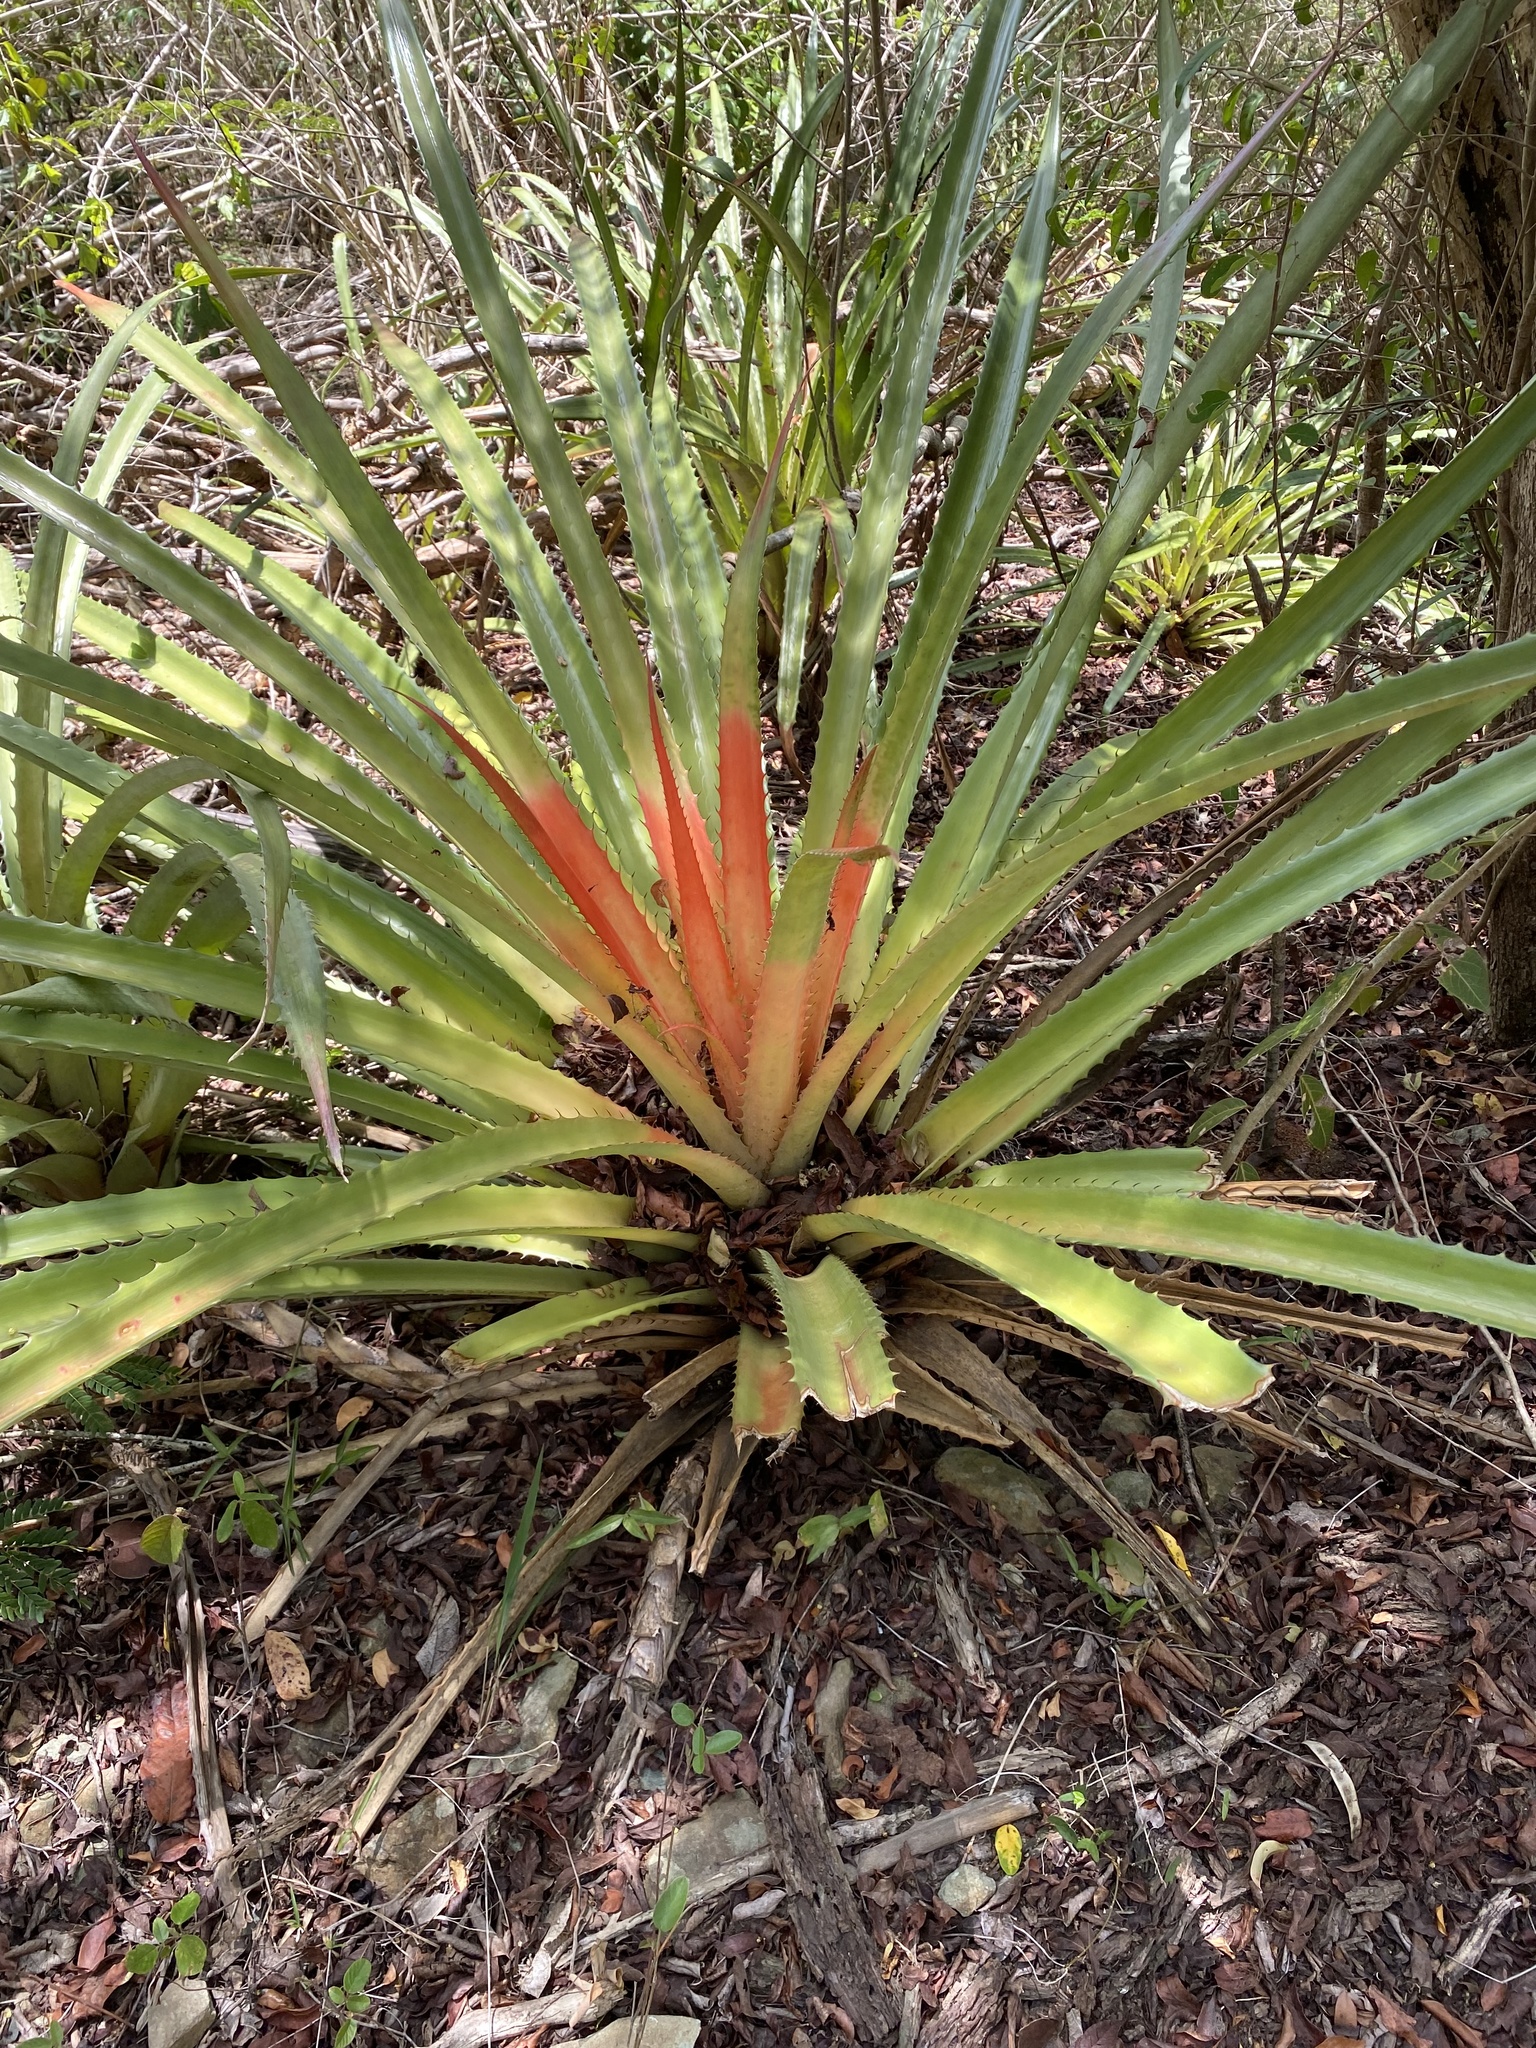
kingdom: Plantae
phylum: Tracheophyta
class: Liliopsida
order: Poales
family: Bromeliaceae
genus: Bromelia
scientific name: Bromelia pinguin
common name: Pinguin
